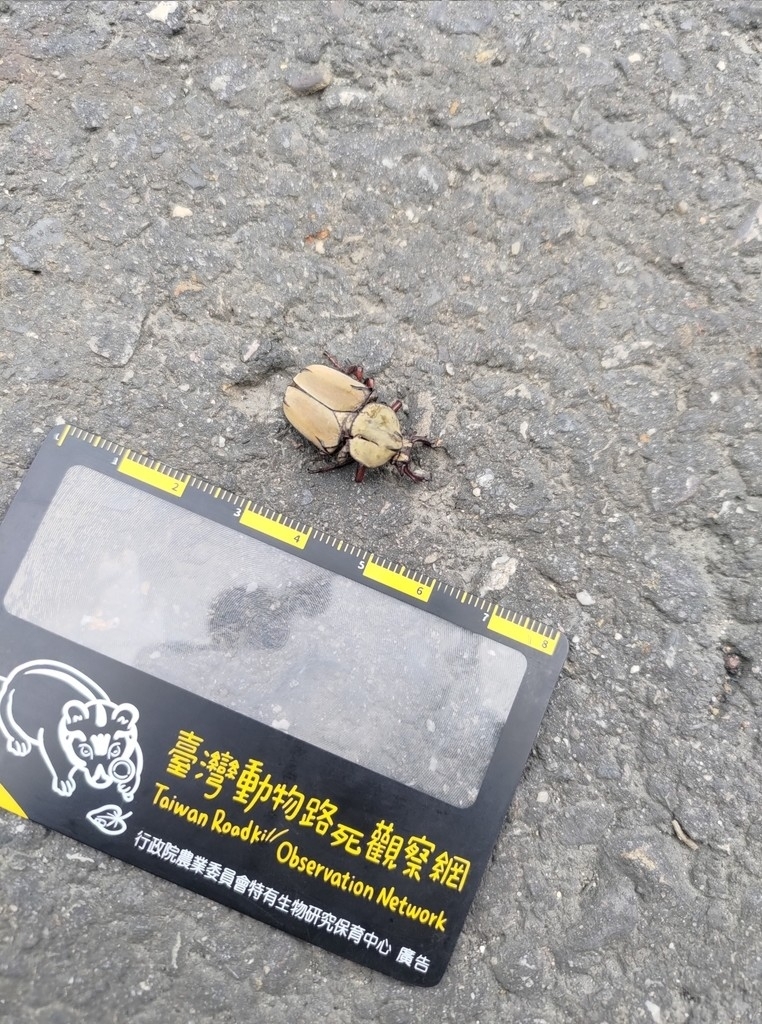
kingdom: Animalia
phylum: Arthropoda
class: Insecta
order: Coleoptera
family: Scarabaeidae
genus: Dicronocephalus
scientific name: Dicronocephalus bourgoini
